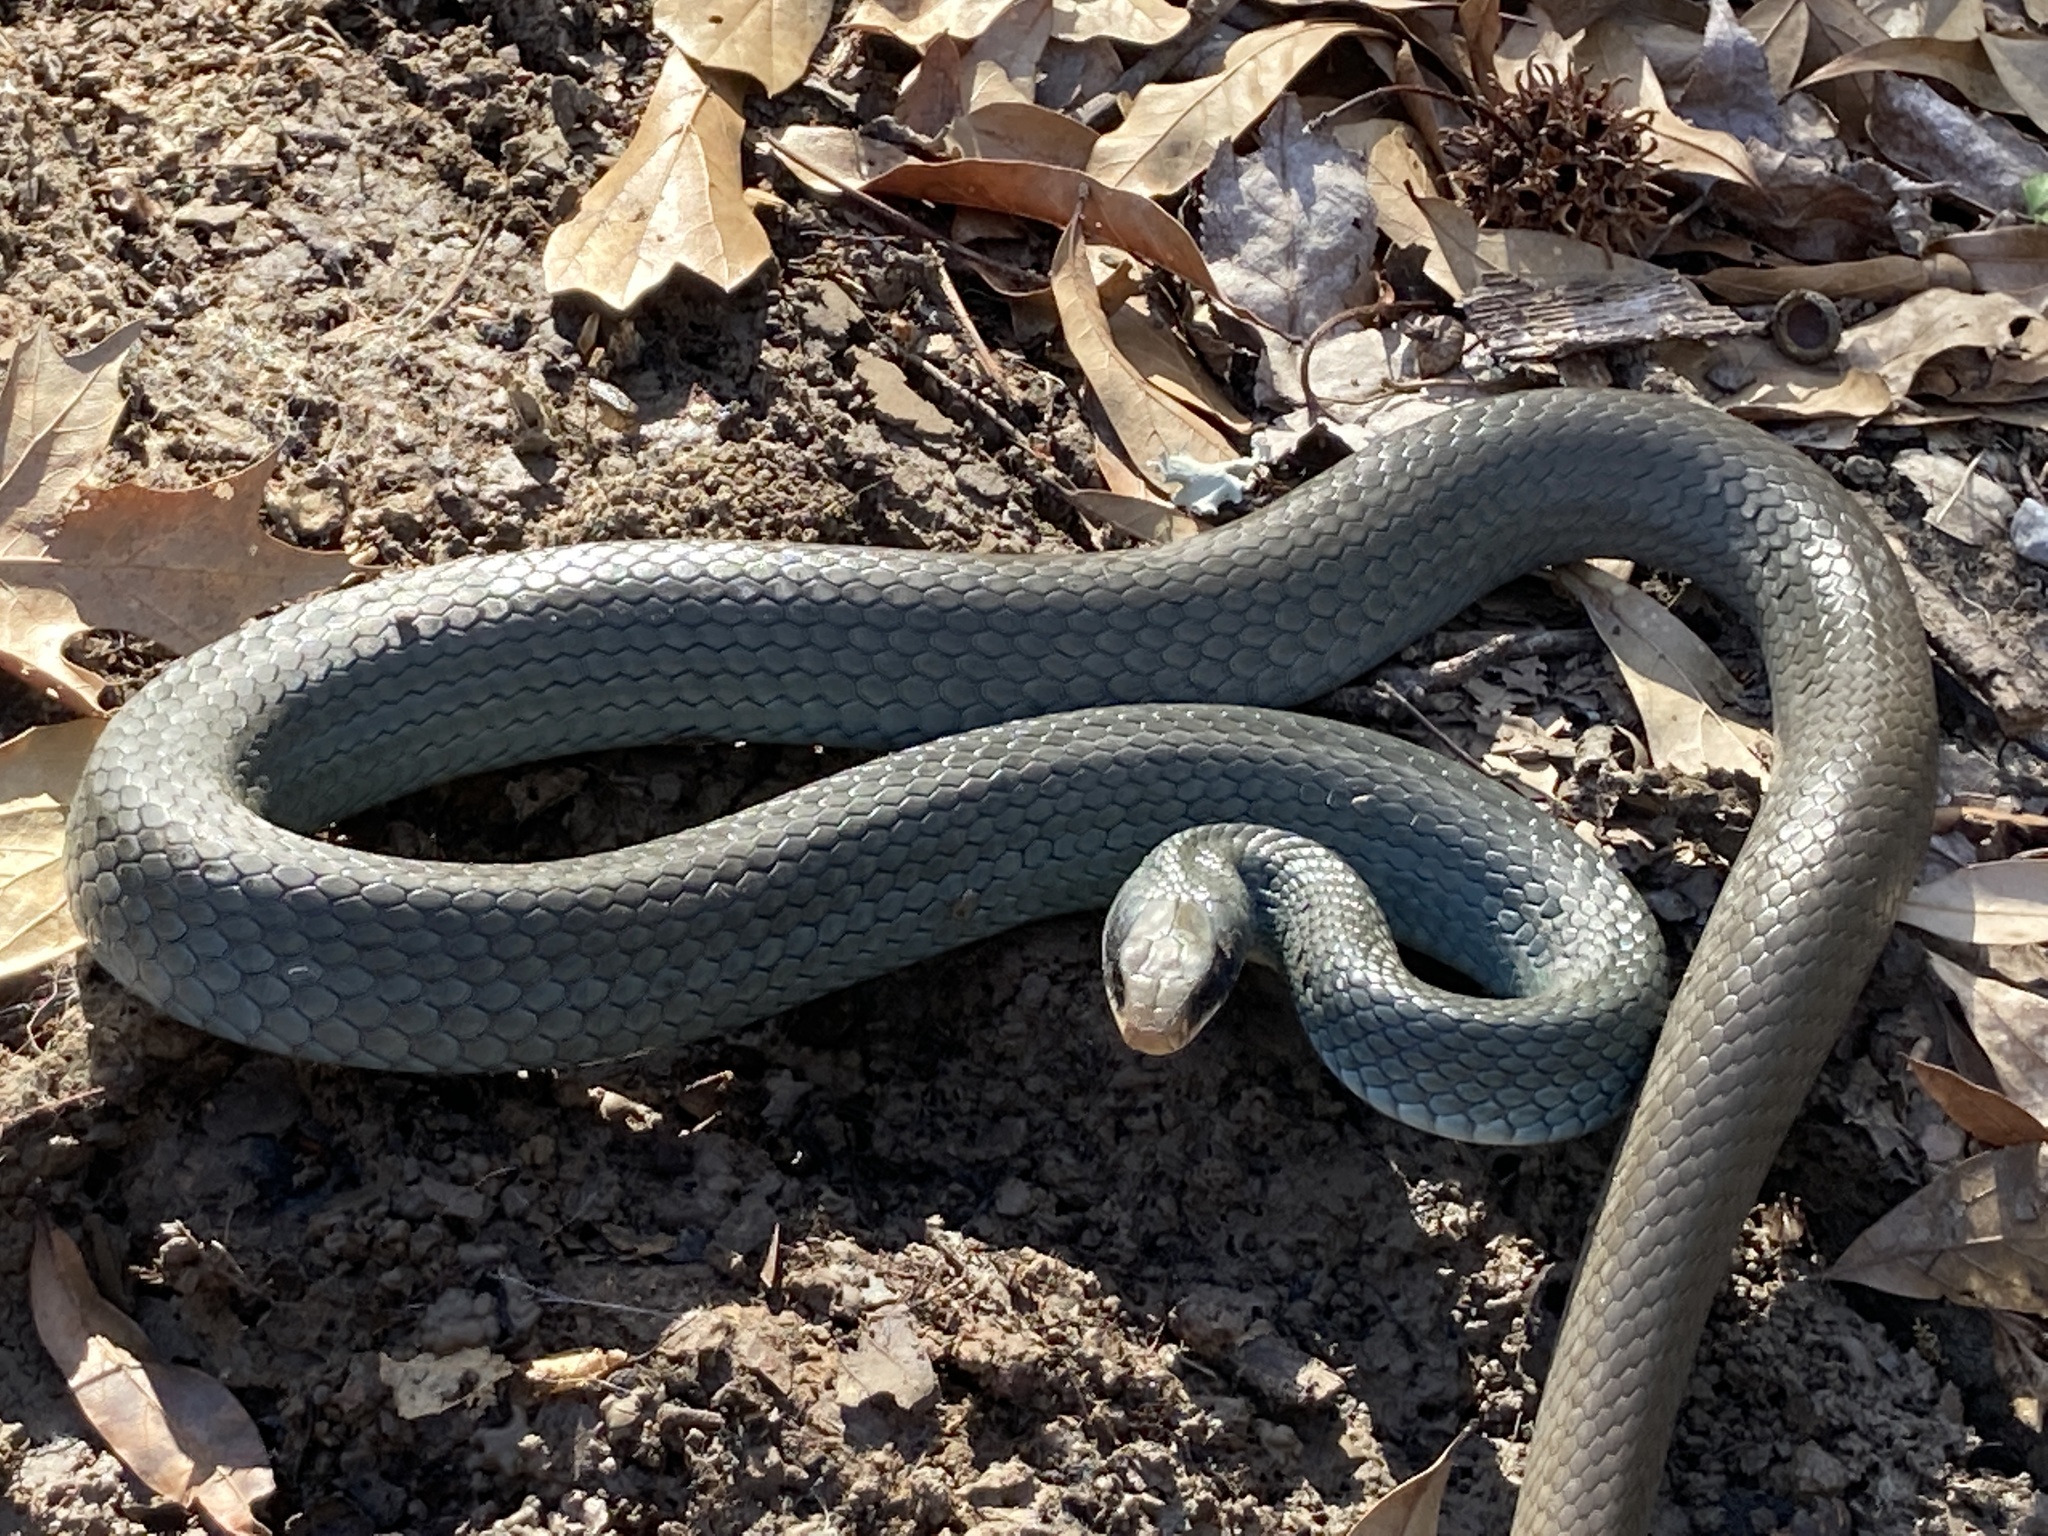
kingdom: Animalia
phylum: Chordata
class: Squamata
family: Colubridae
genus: Coluber
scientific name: Coluber constrictor
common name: Eastern racer
